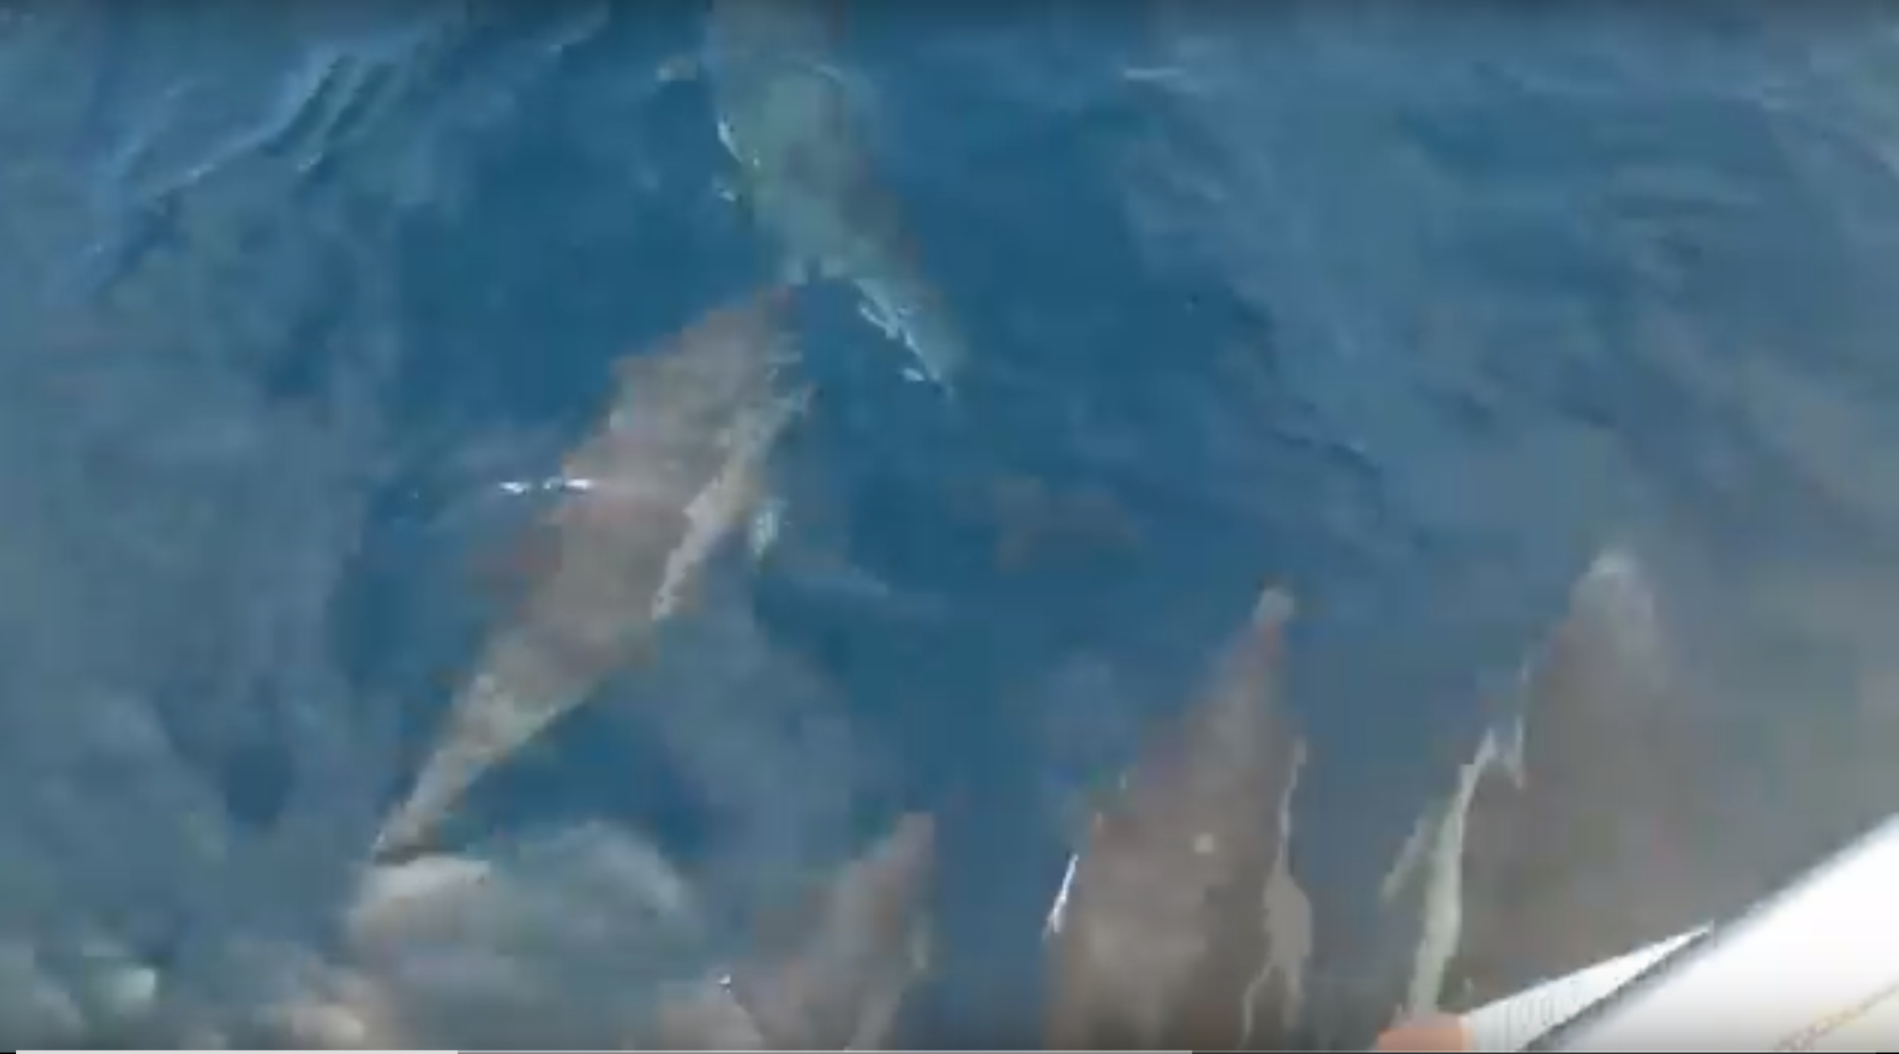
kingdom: Animalia
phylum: Chordata
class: Mammalia
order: Cetacea
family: Delphinidae
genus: Delphinus
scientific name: Delphinus delphis
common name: Common dolphin
